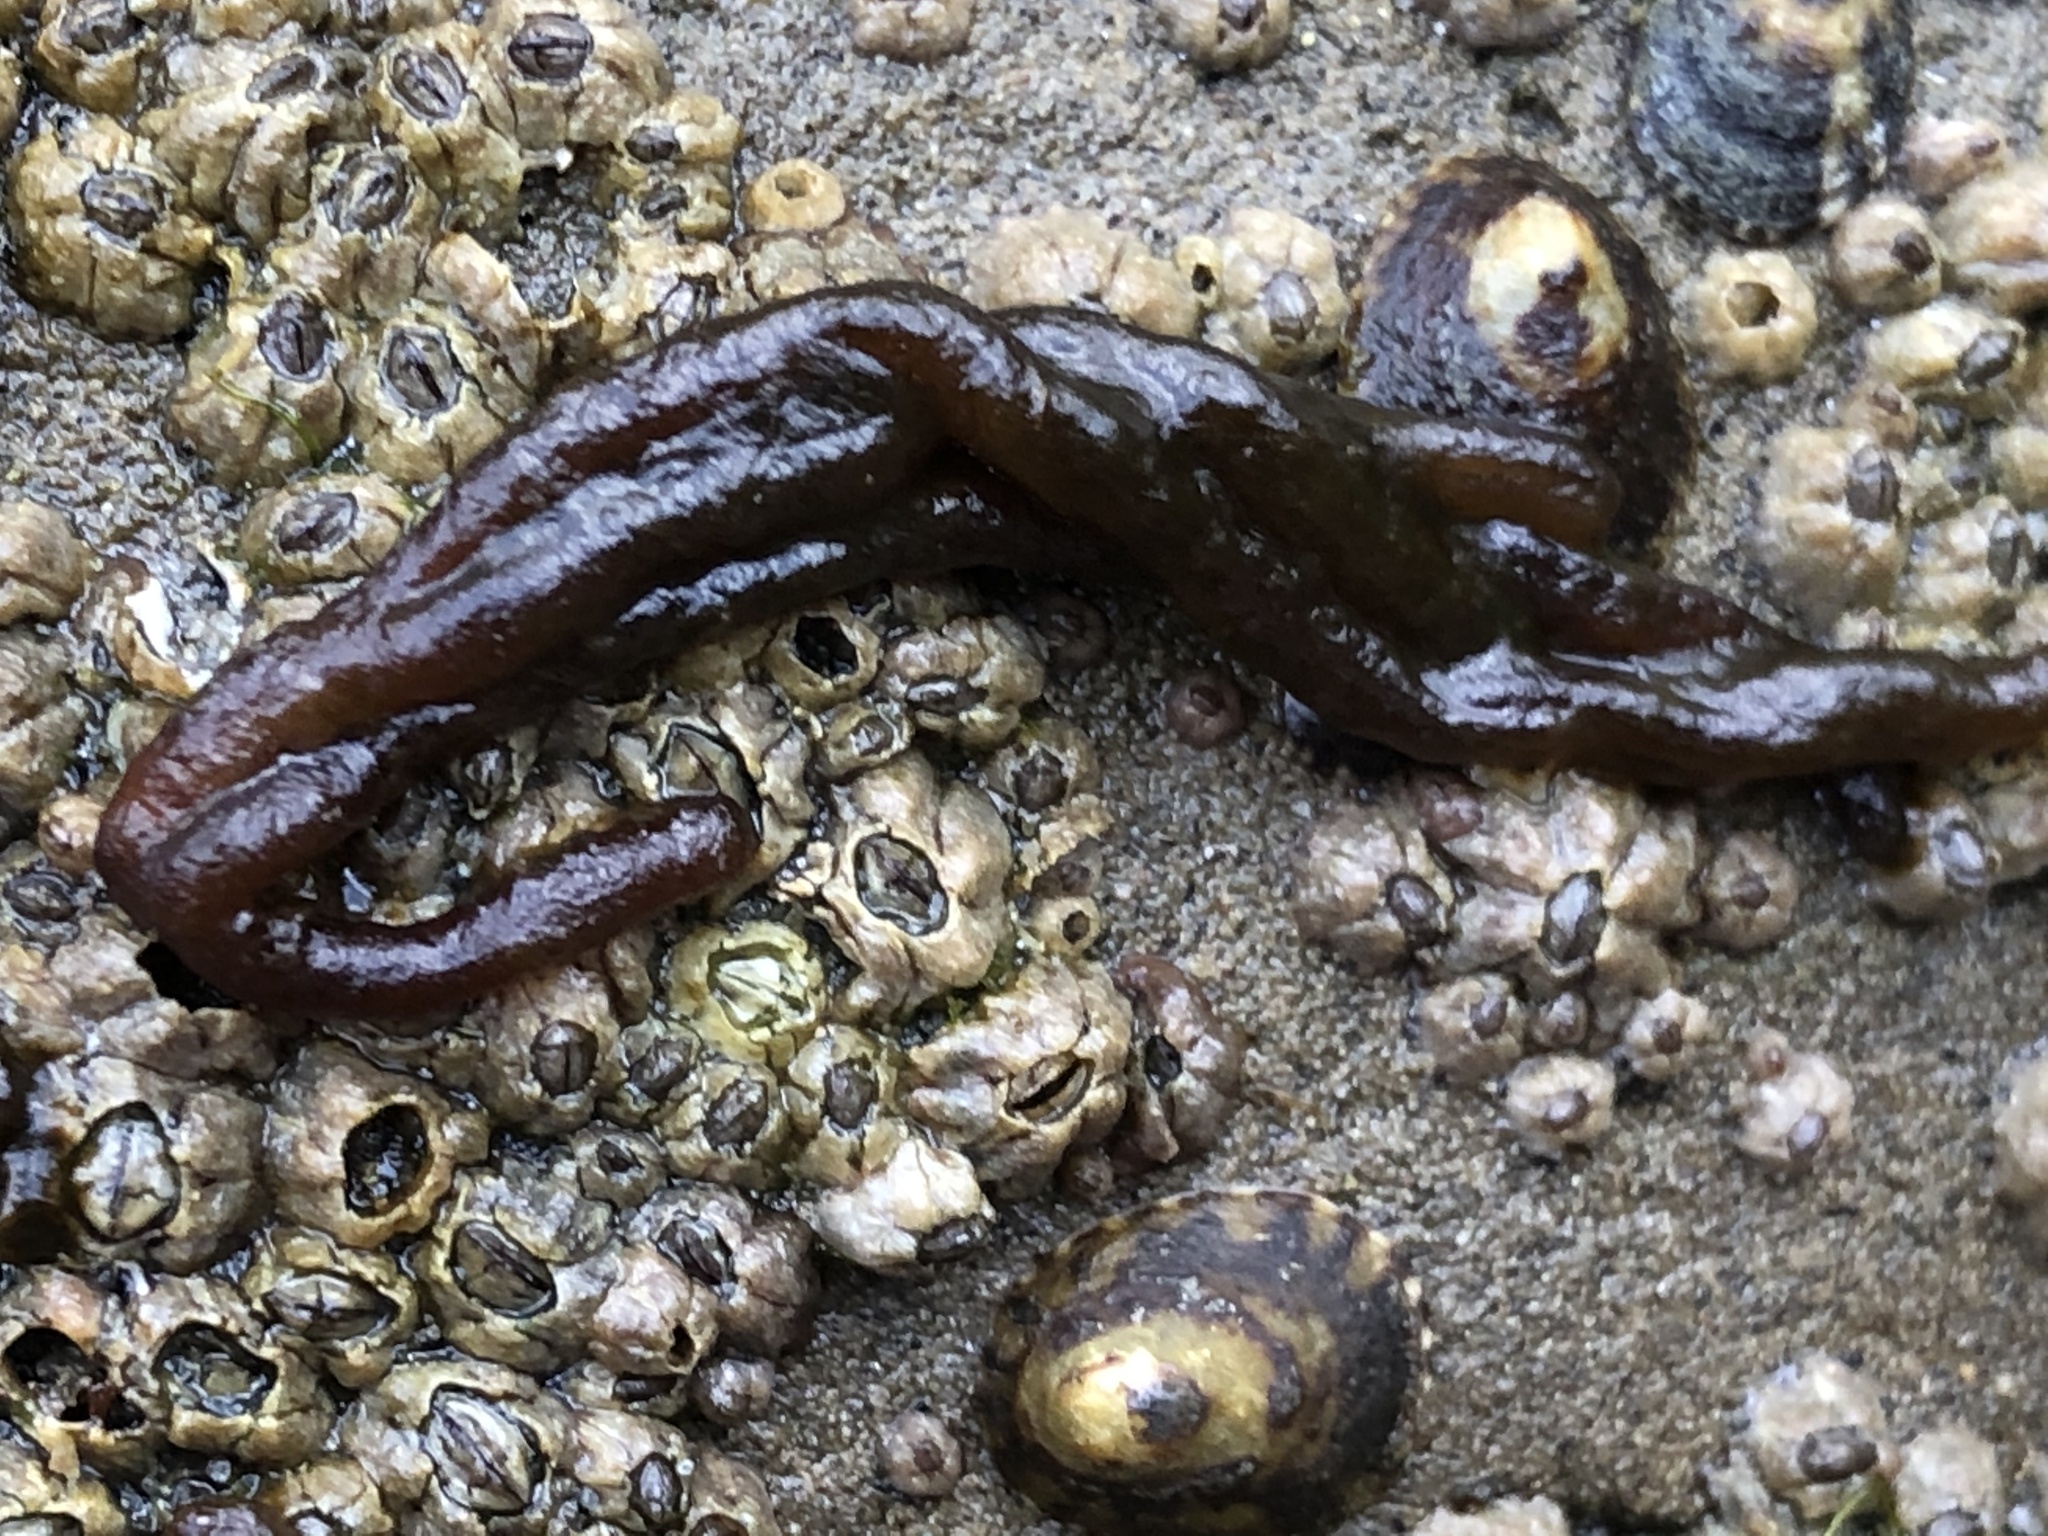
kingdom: Plantae
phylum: Rhodophyta
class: Florideophyceae
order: Nemaliales
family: Nemaliaceae
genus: Nemalion
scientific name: Nemalion elminthoides
